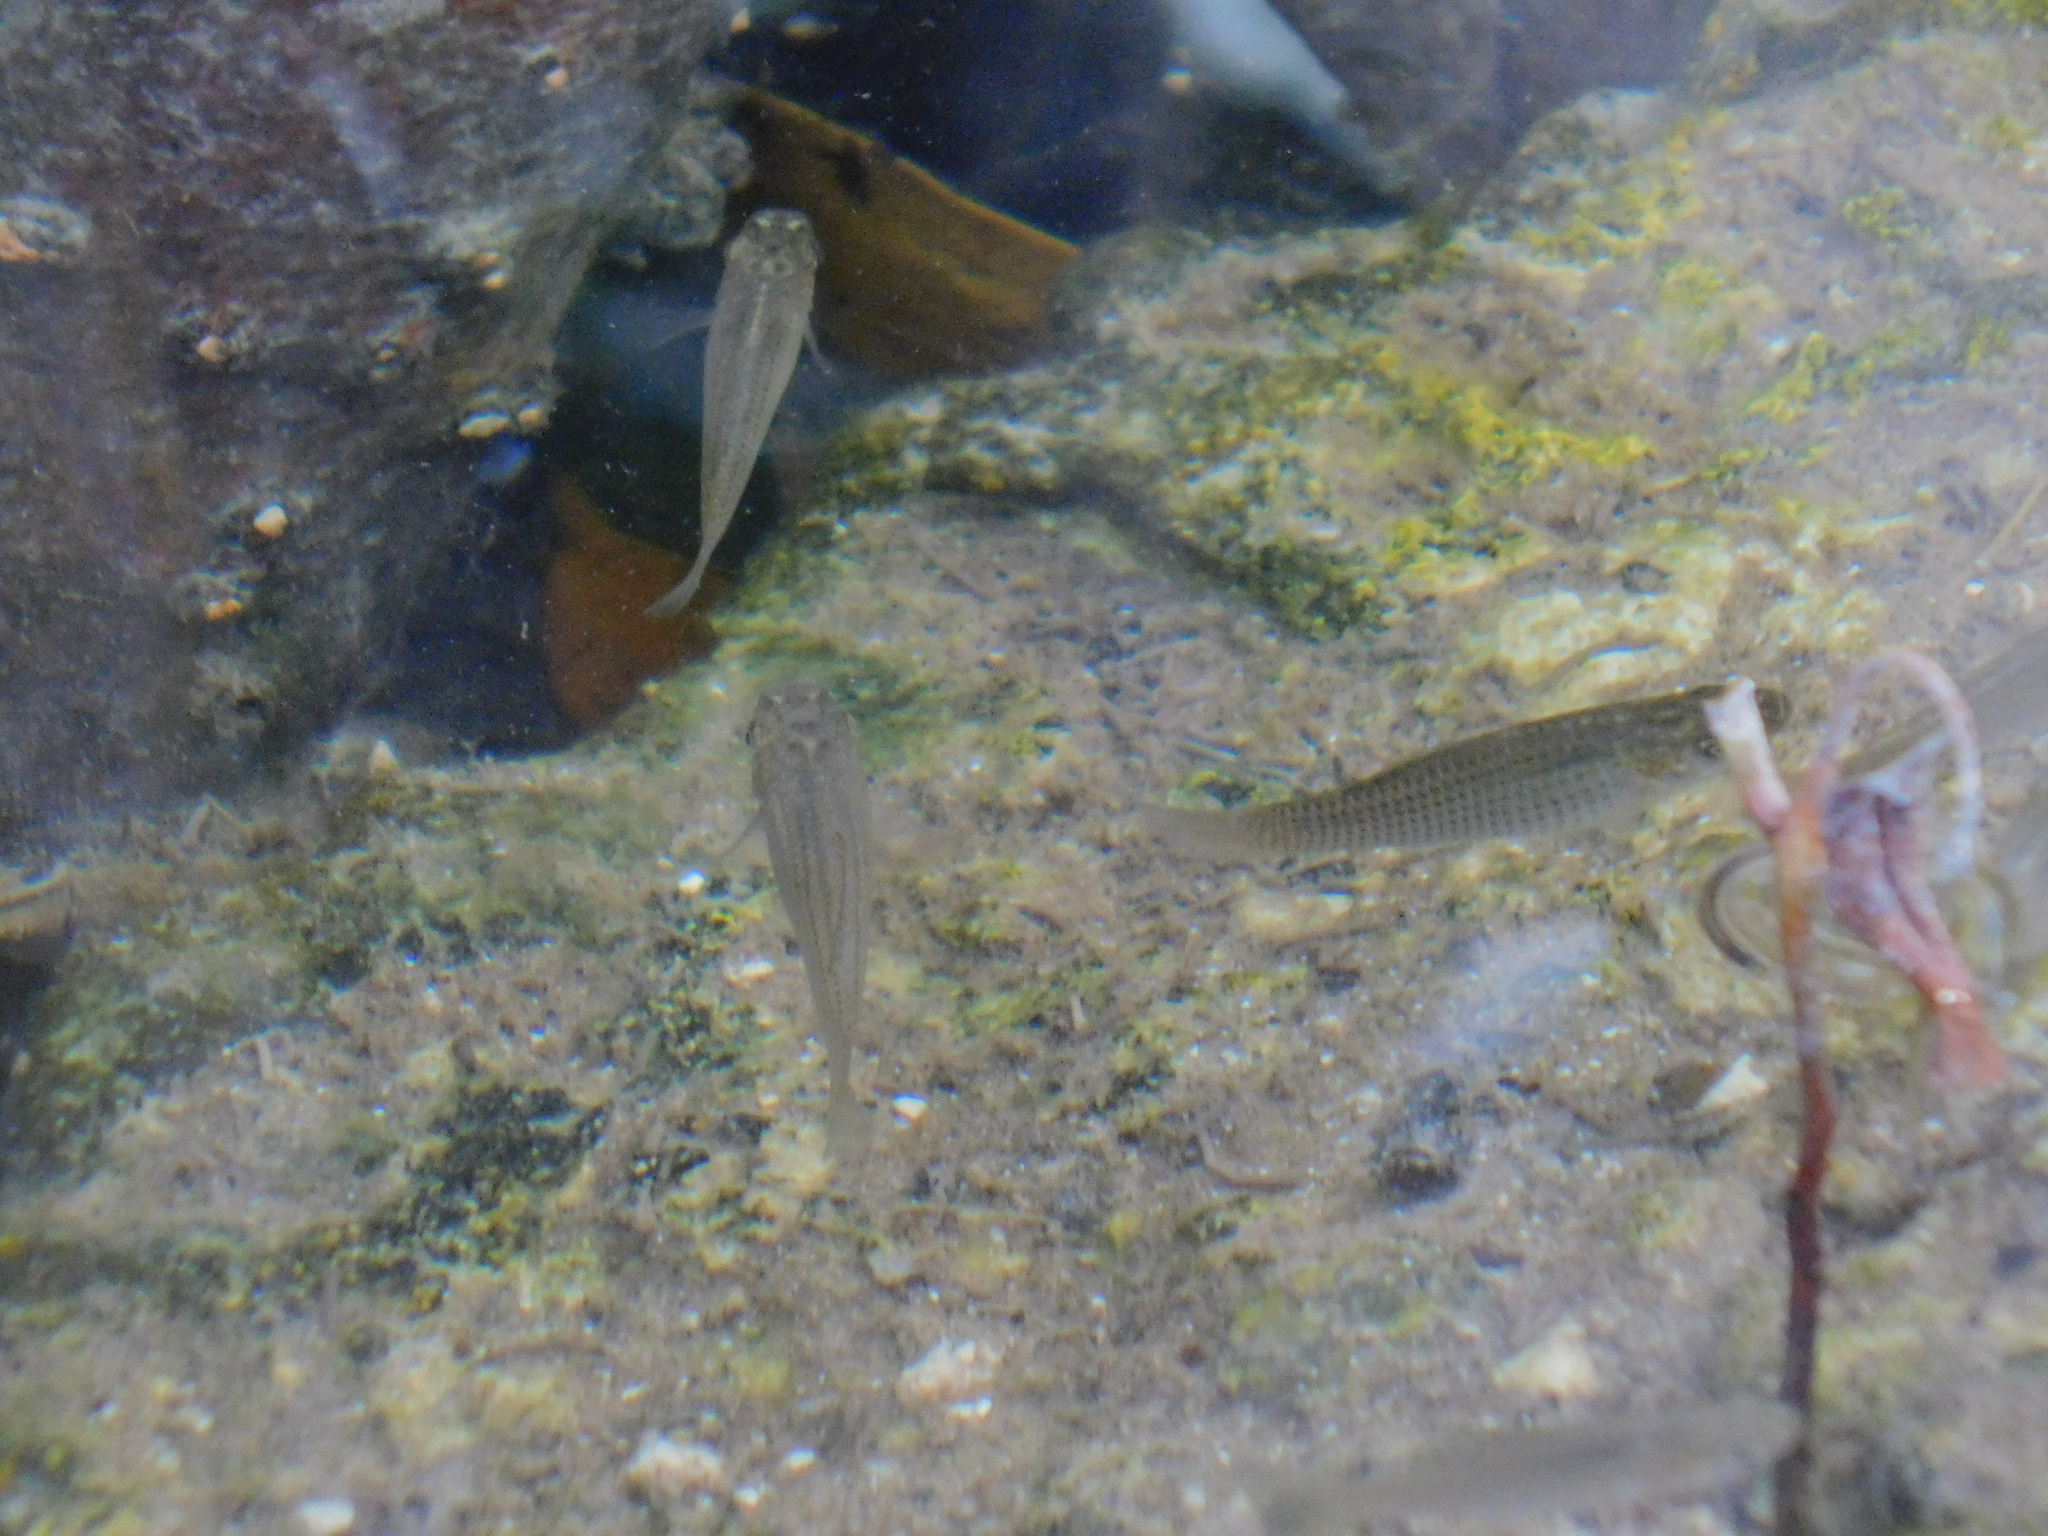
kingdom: Animalia
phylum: Chordata
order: Cyprinodontiformes
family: Poeciliidae
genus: Poecilia
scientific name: Poecilia latipinna
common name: Sailfin molly
